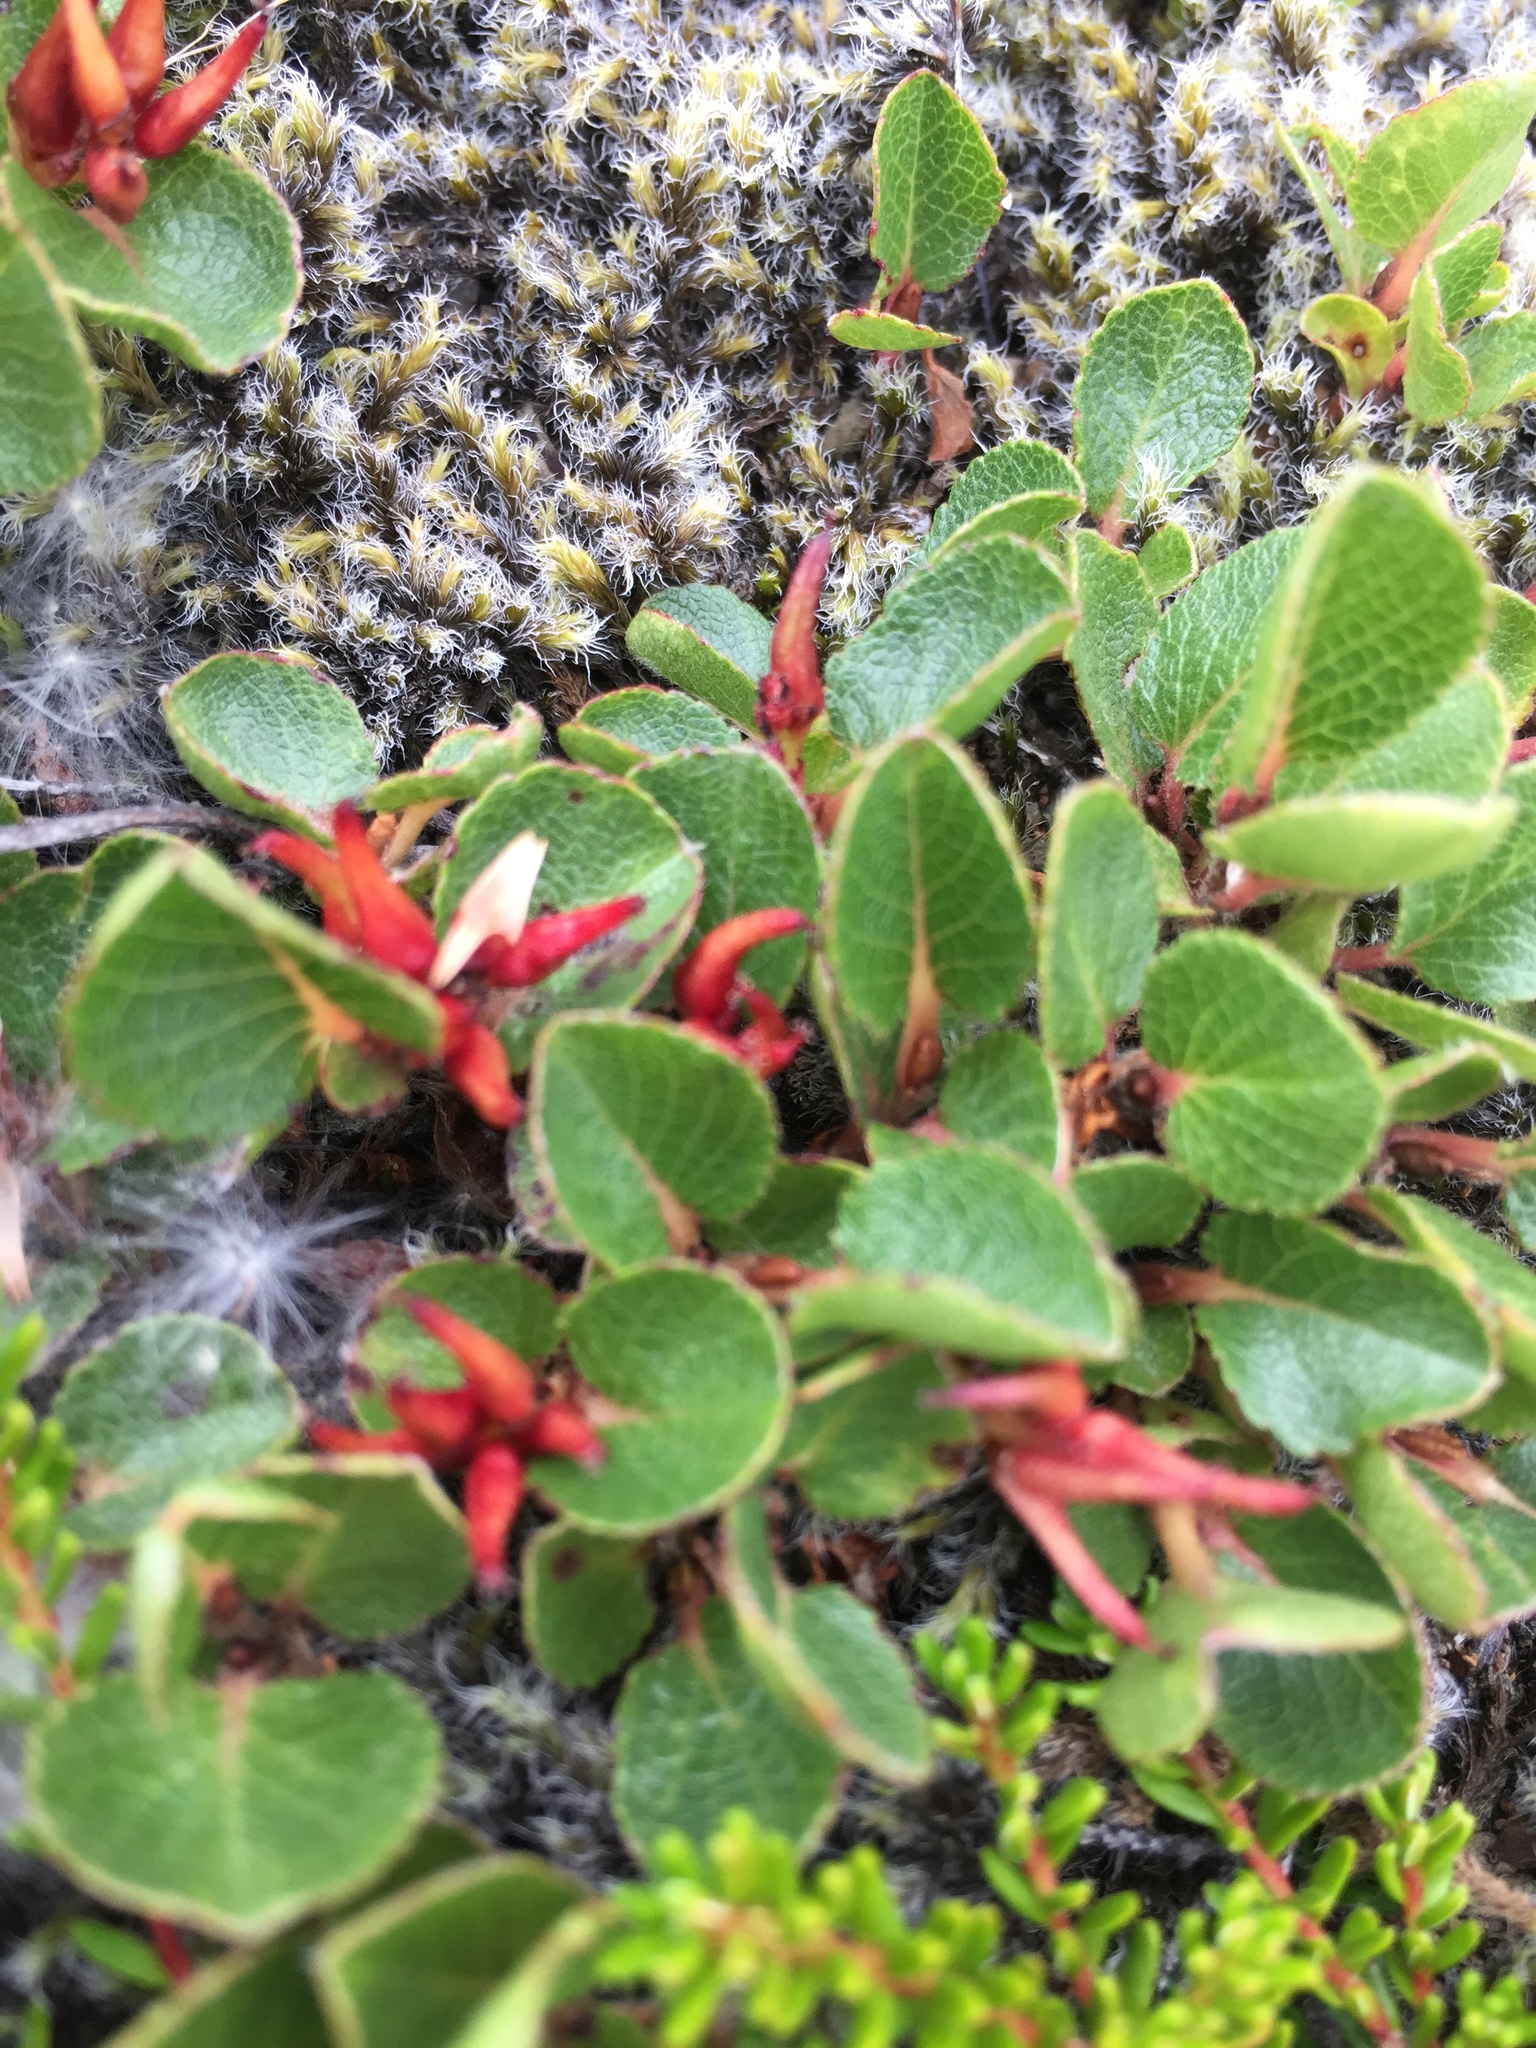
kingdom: Plantae
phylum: Tracheophyta
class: Magnoliopsida
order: Malpighiales
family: Salicaceae
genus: Salix
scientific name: Salix herbacea
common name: Dwarf willow
